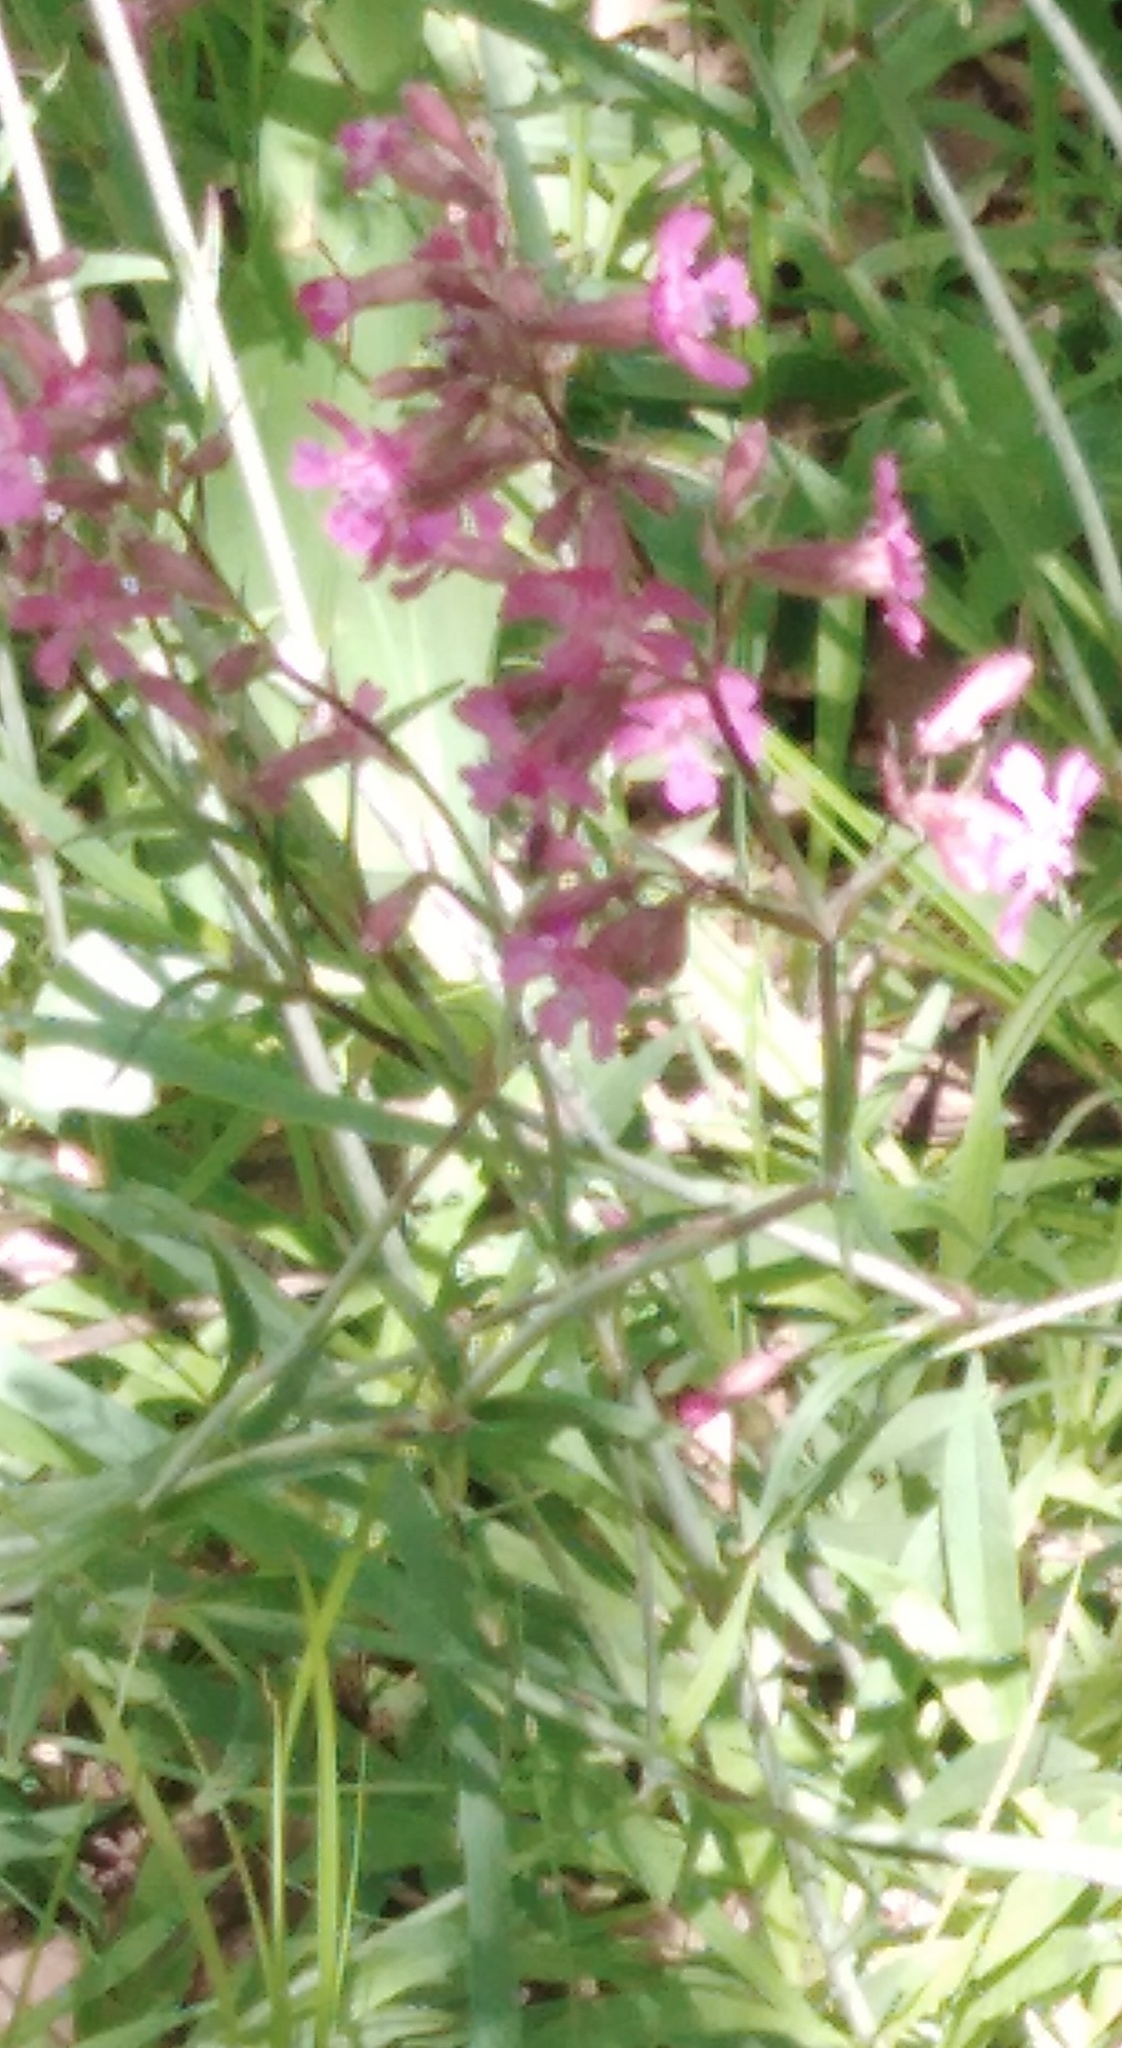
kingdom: Plantae
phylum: Tracheophyta
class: Magnoliopsida
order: Caryophyllales
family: Caryophyllaceae
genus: Viscaria
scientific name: Viscaria vulgaris
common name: Clammy campion
